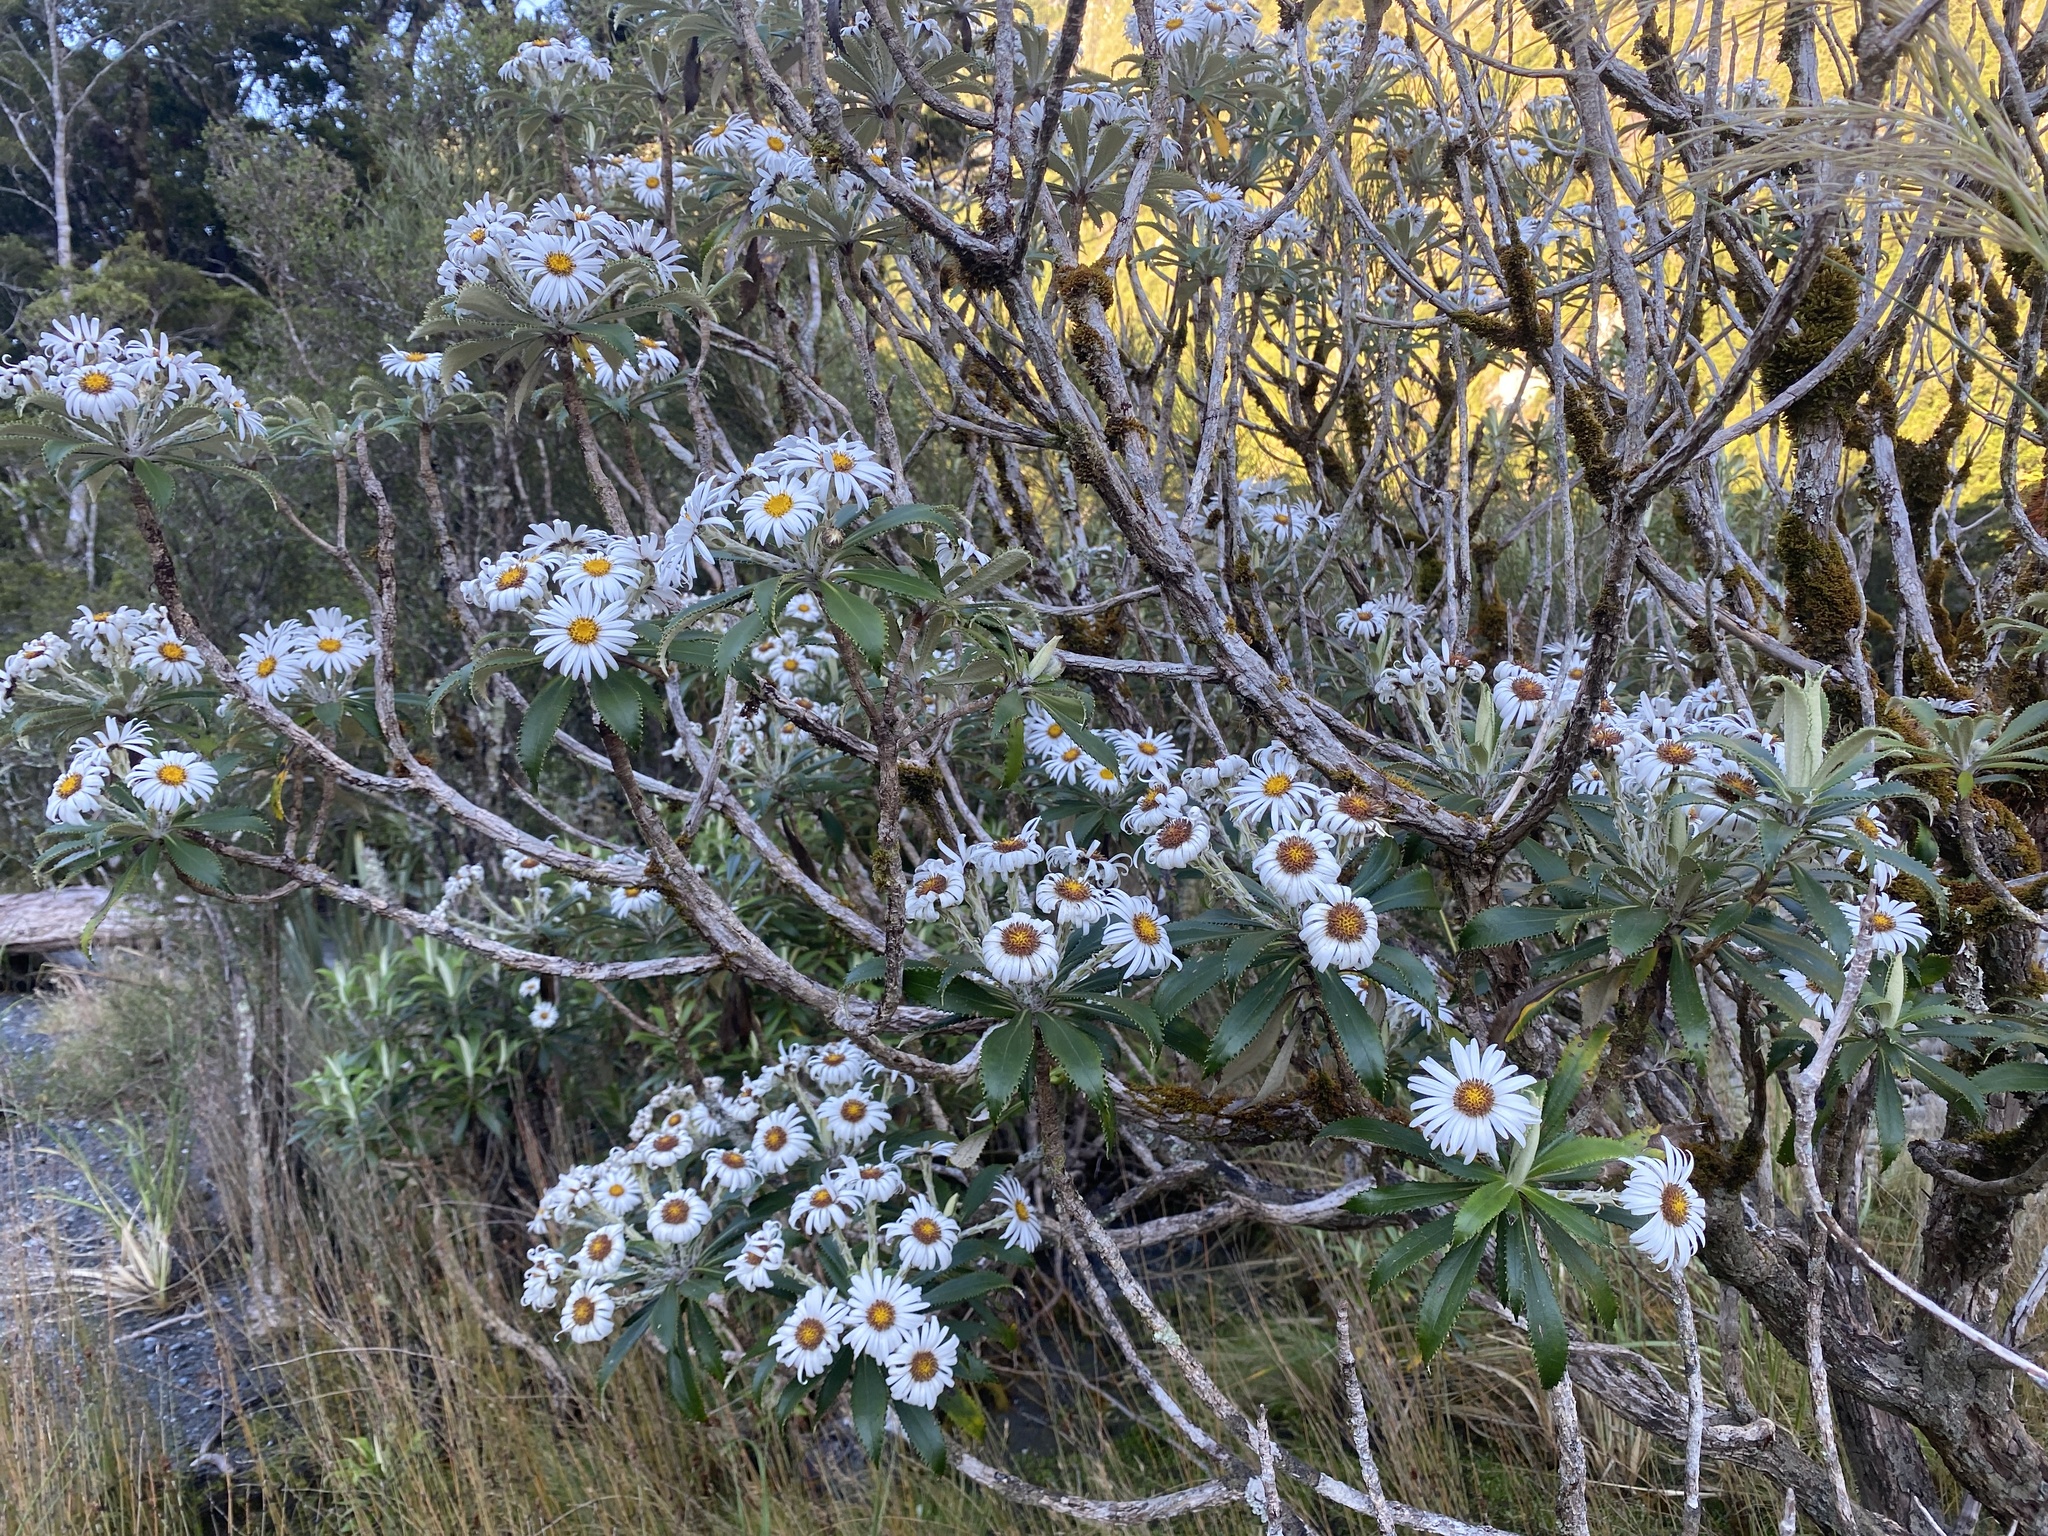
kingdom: Plantae
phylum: Tracheophyta
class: Magnoliopsida
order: Asterales
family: Asteraceae
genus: Macrolearia
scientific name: Macrolearia oporina
